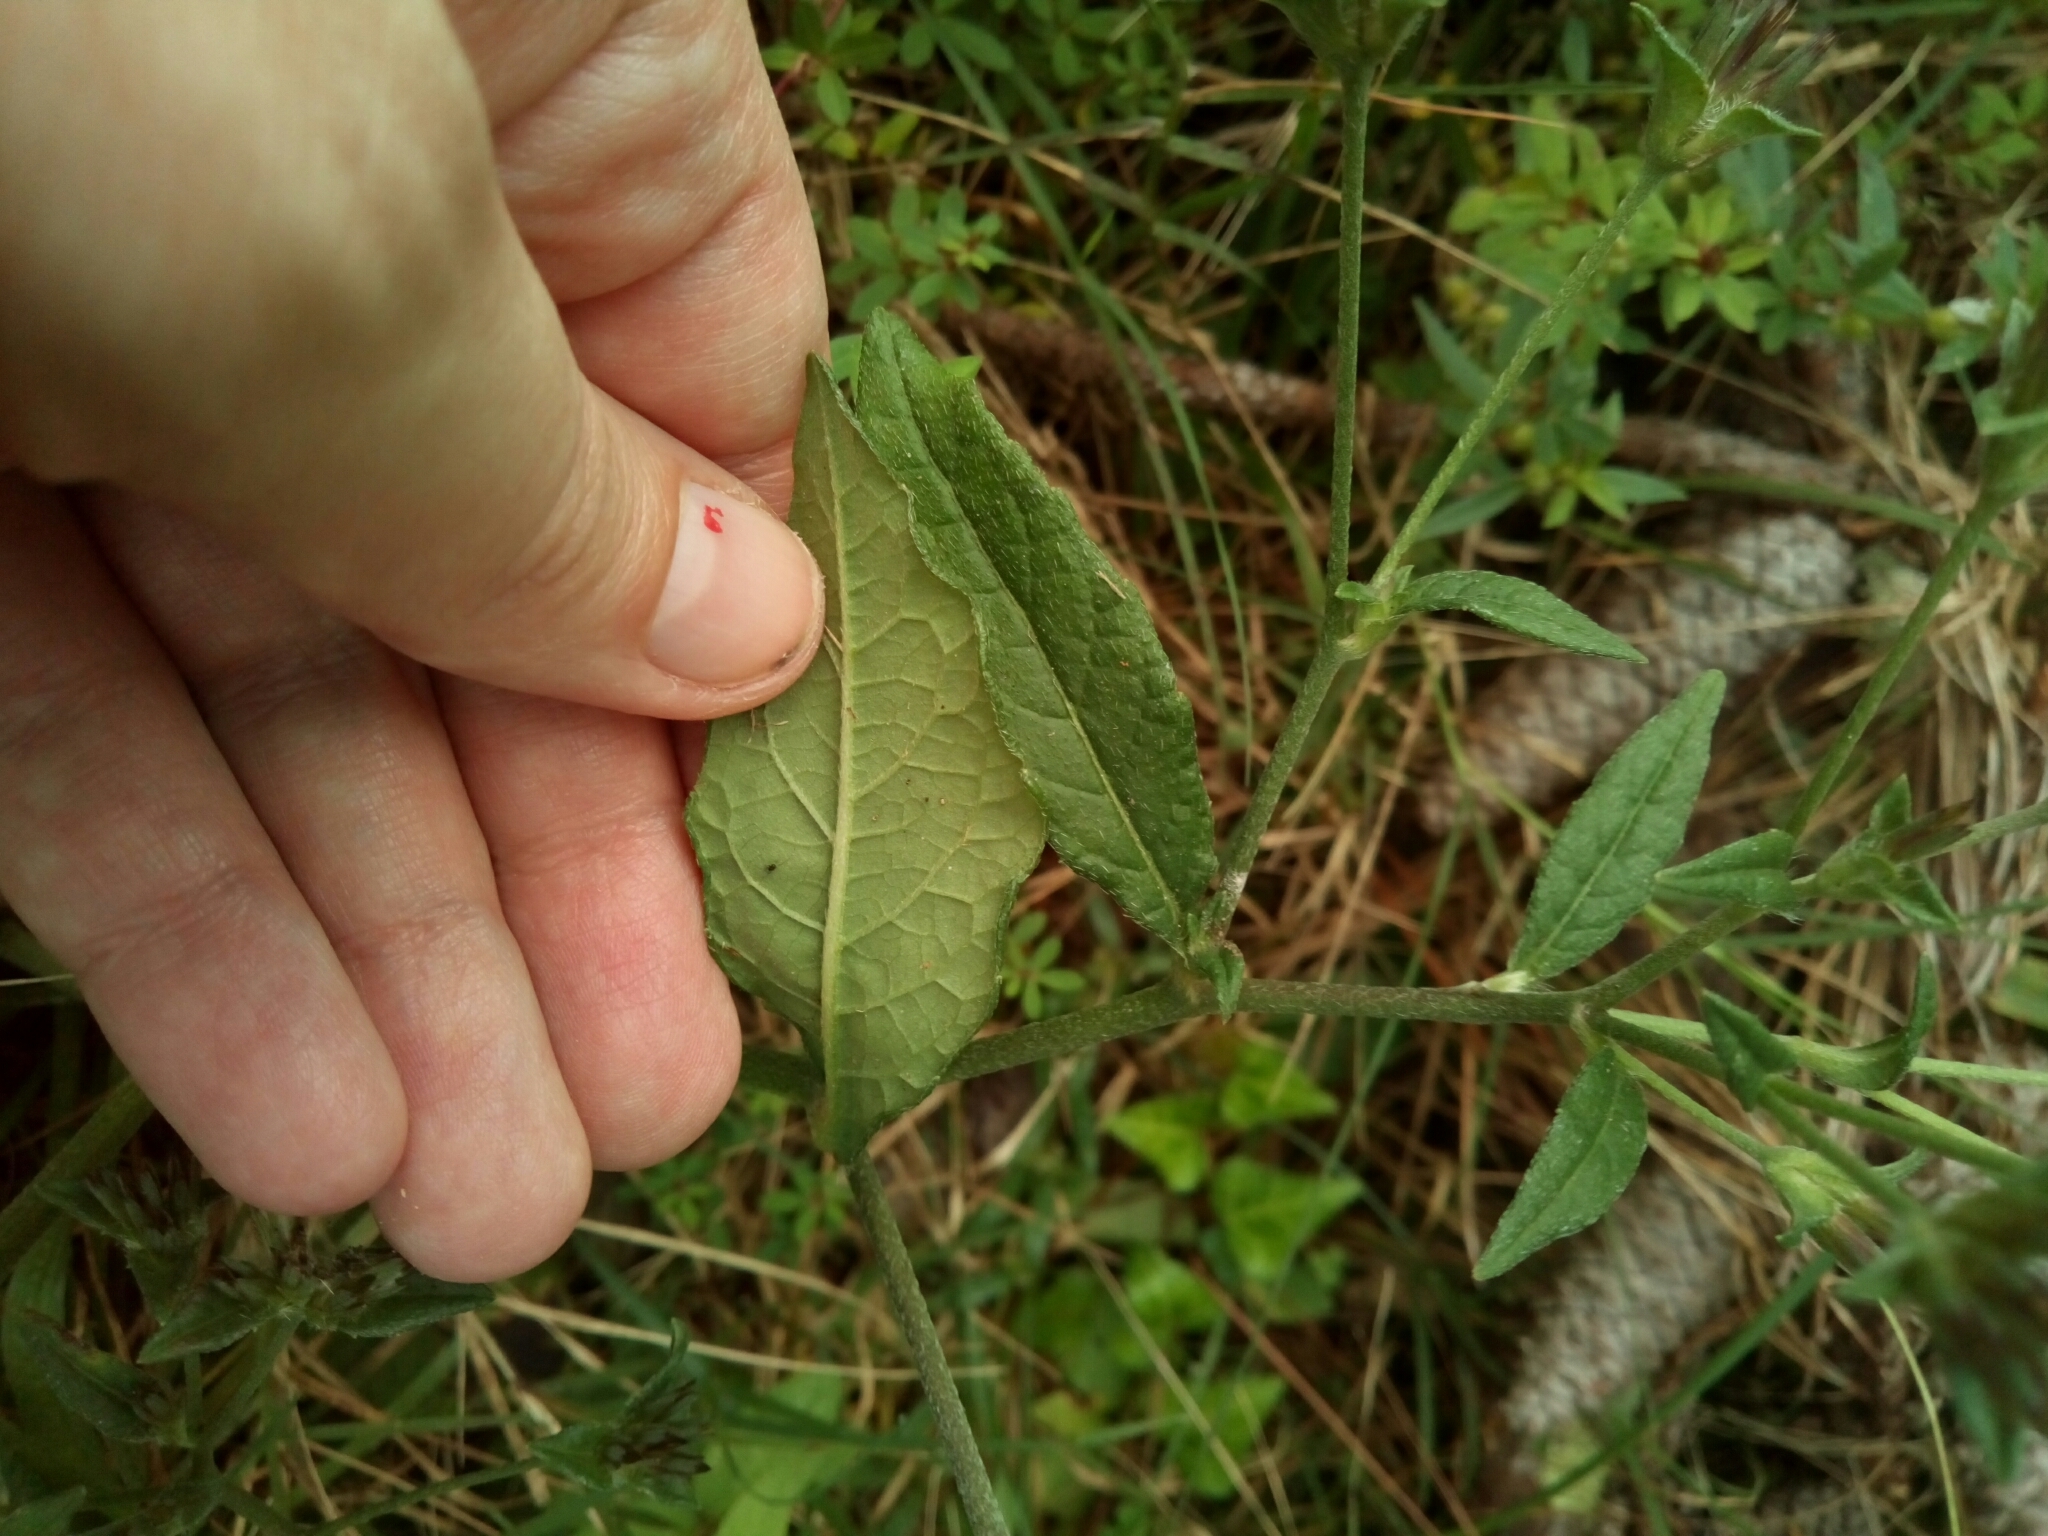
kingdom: Plantae
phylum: Tracheophyta
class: Magnoliopsida
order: Asterales
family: Asteraceae
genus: Elephantopus
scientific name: Elephantopus carolinianus
